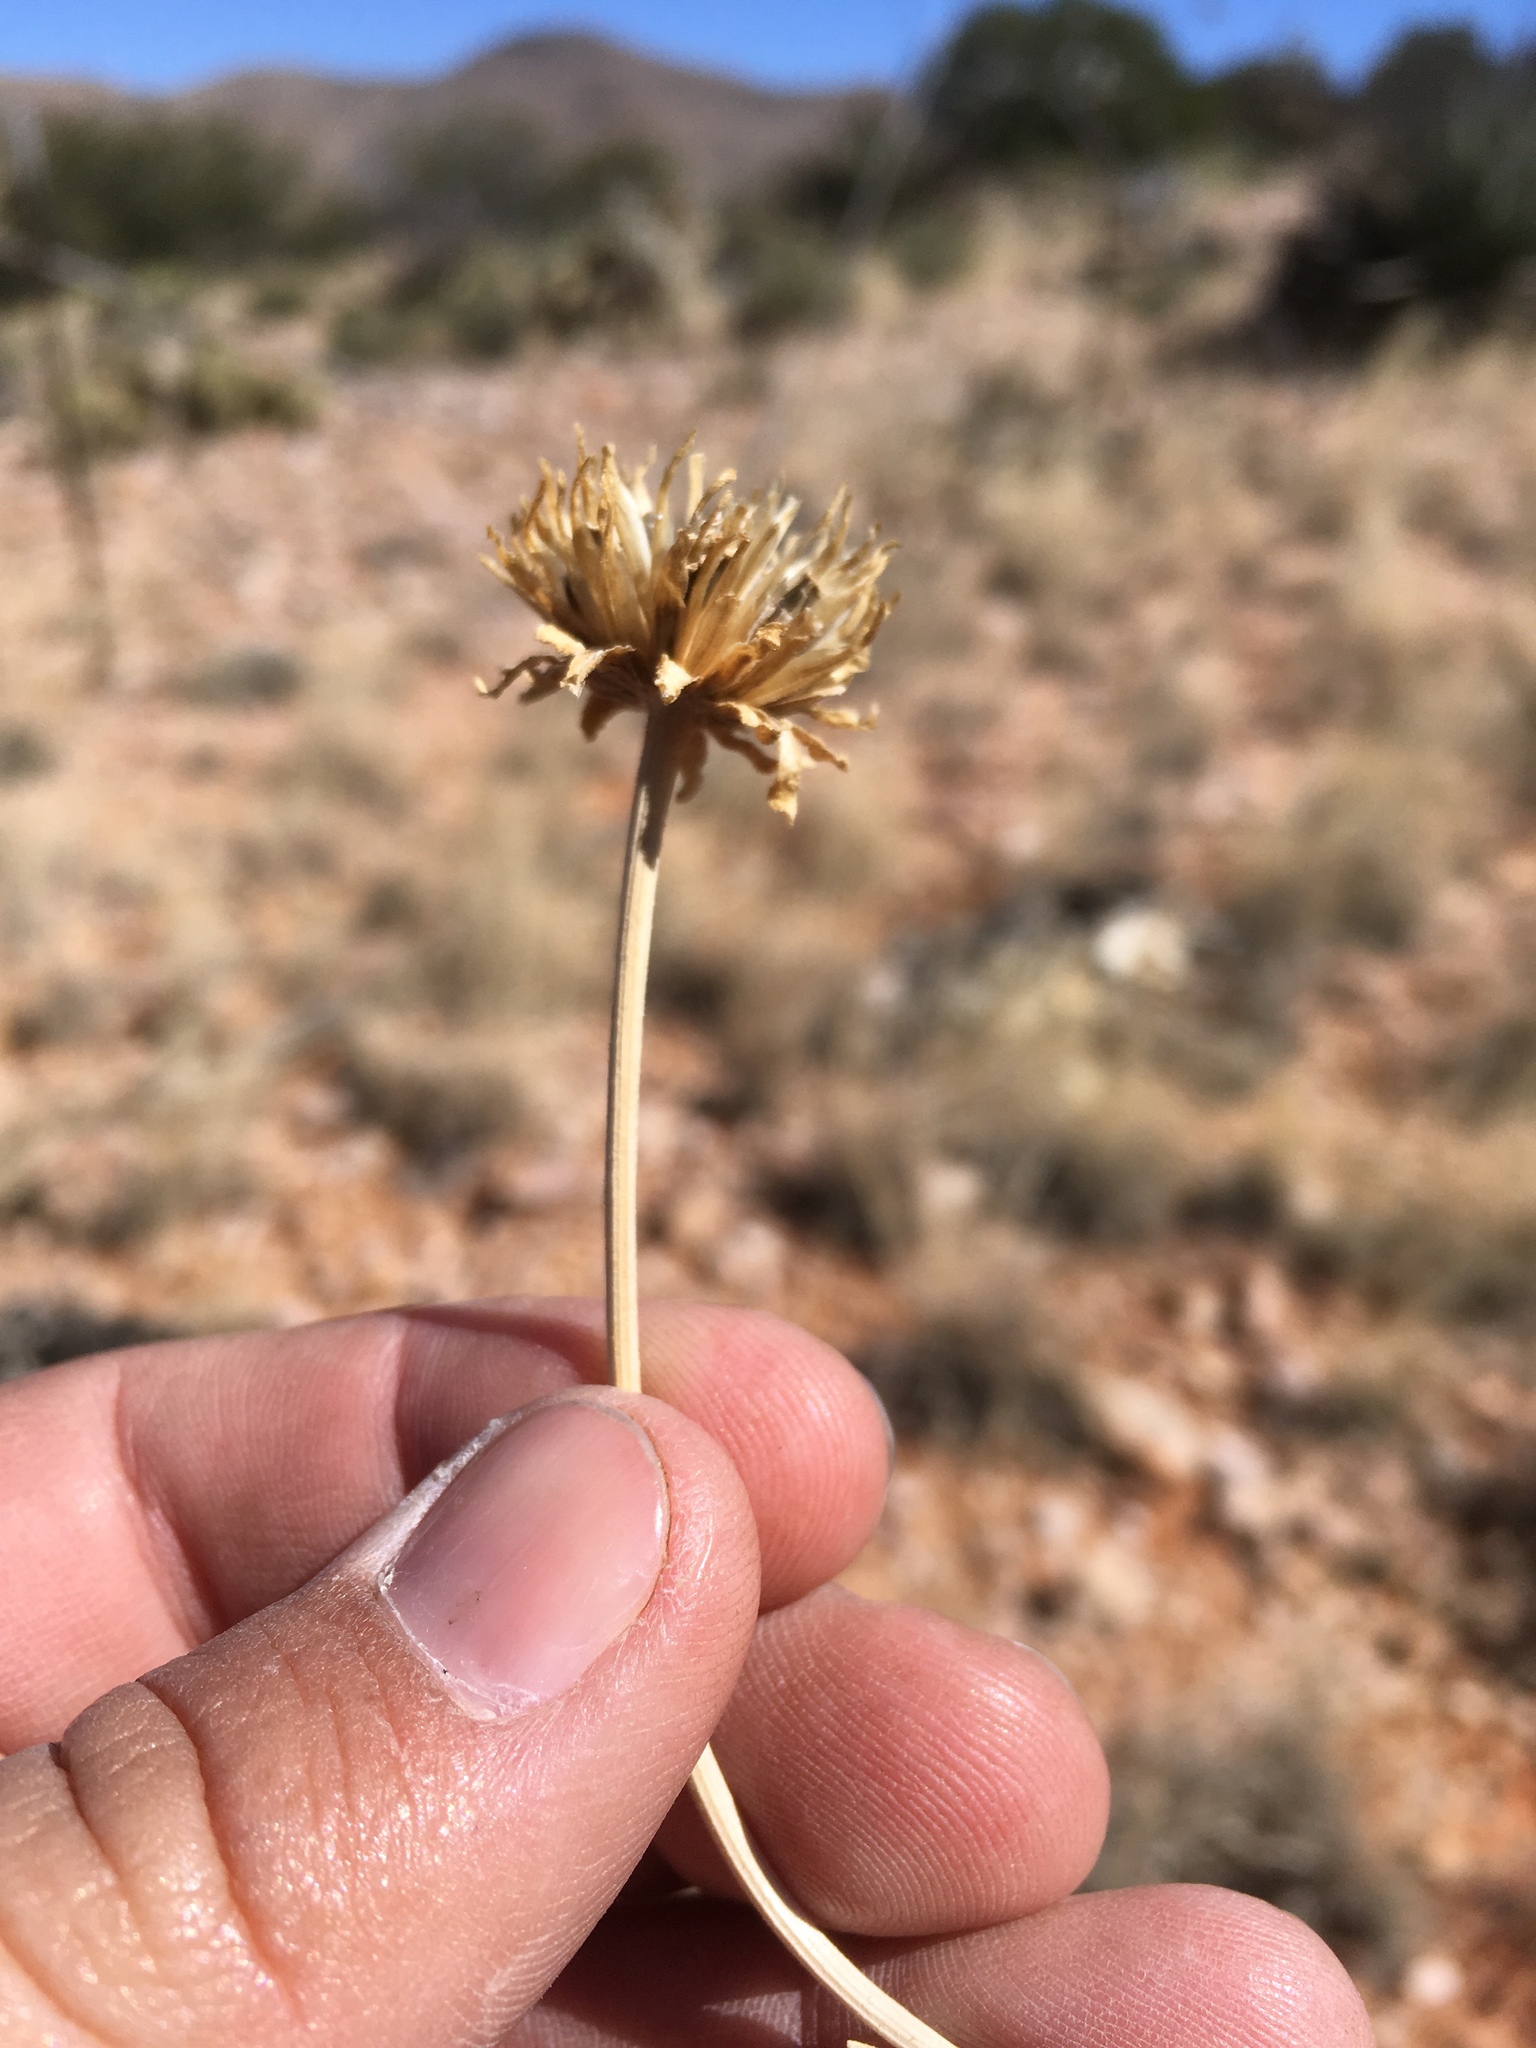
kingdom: Plantae
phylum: Tracheophyta
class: Magnoliopsida
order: Asterales
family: Asteraceae
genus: Verbesina
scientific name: Verbesina rothrockii
